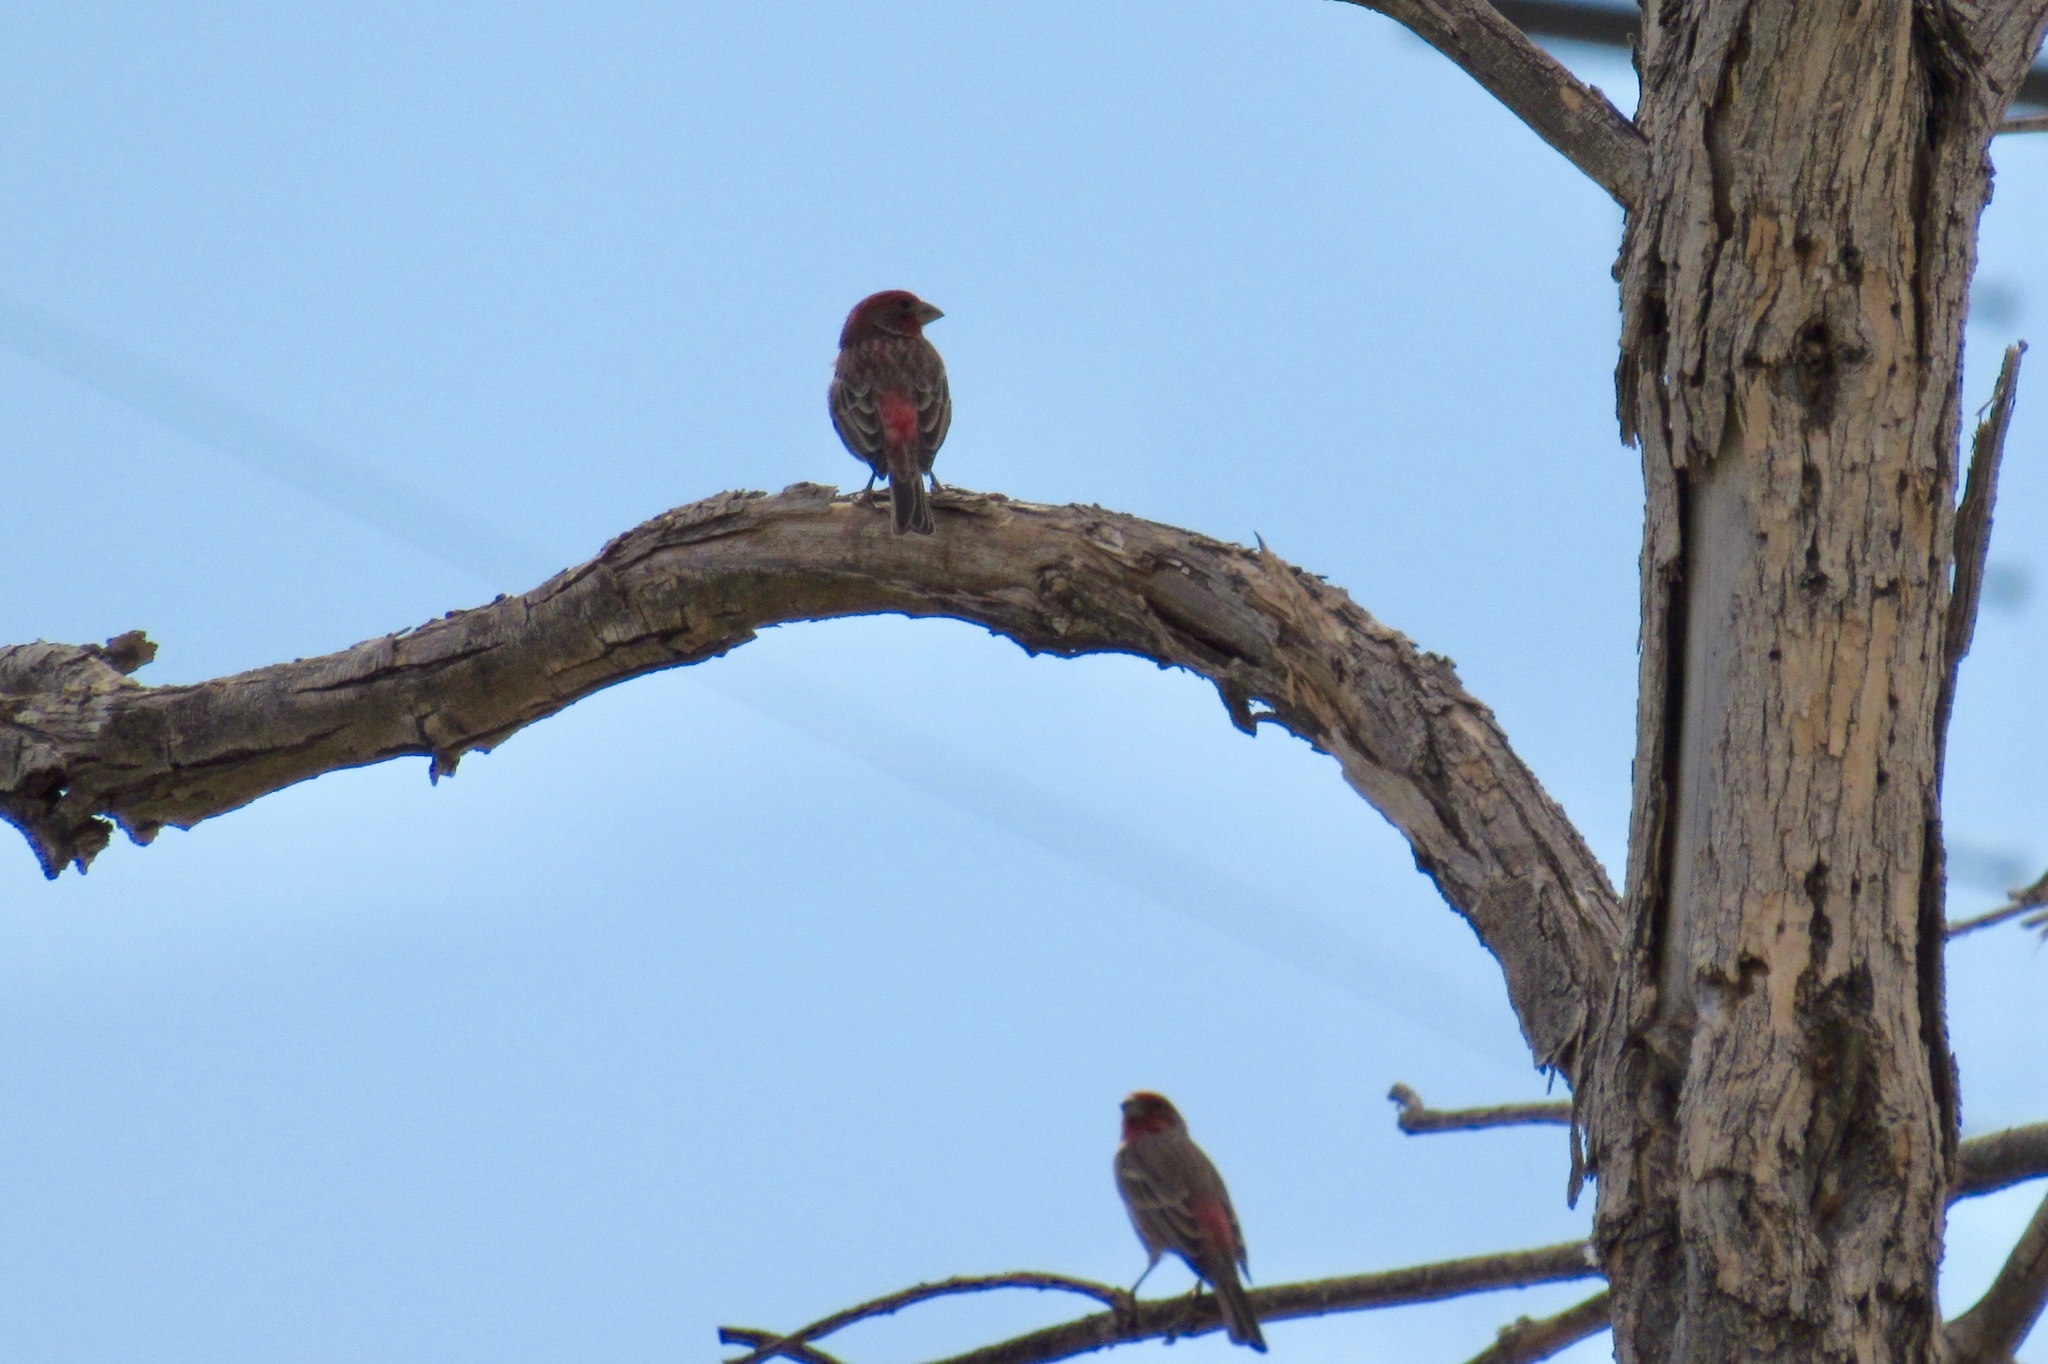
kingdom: Animalia
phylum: Chordata
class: Aves
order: Passeriformes
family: Fringillidae
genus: Haemorhous
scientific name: Haemorhous mexicanus
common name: House finch
